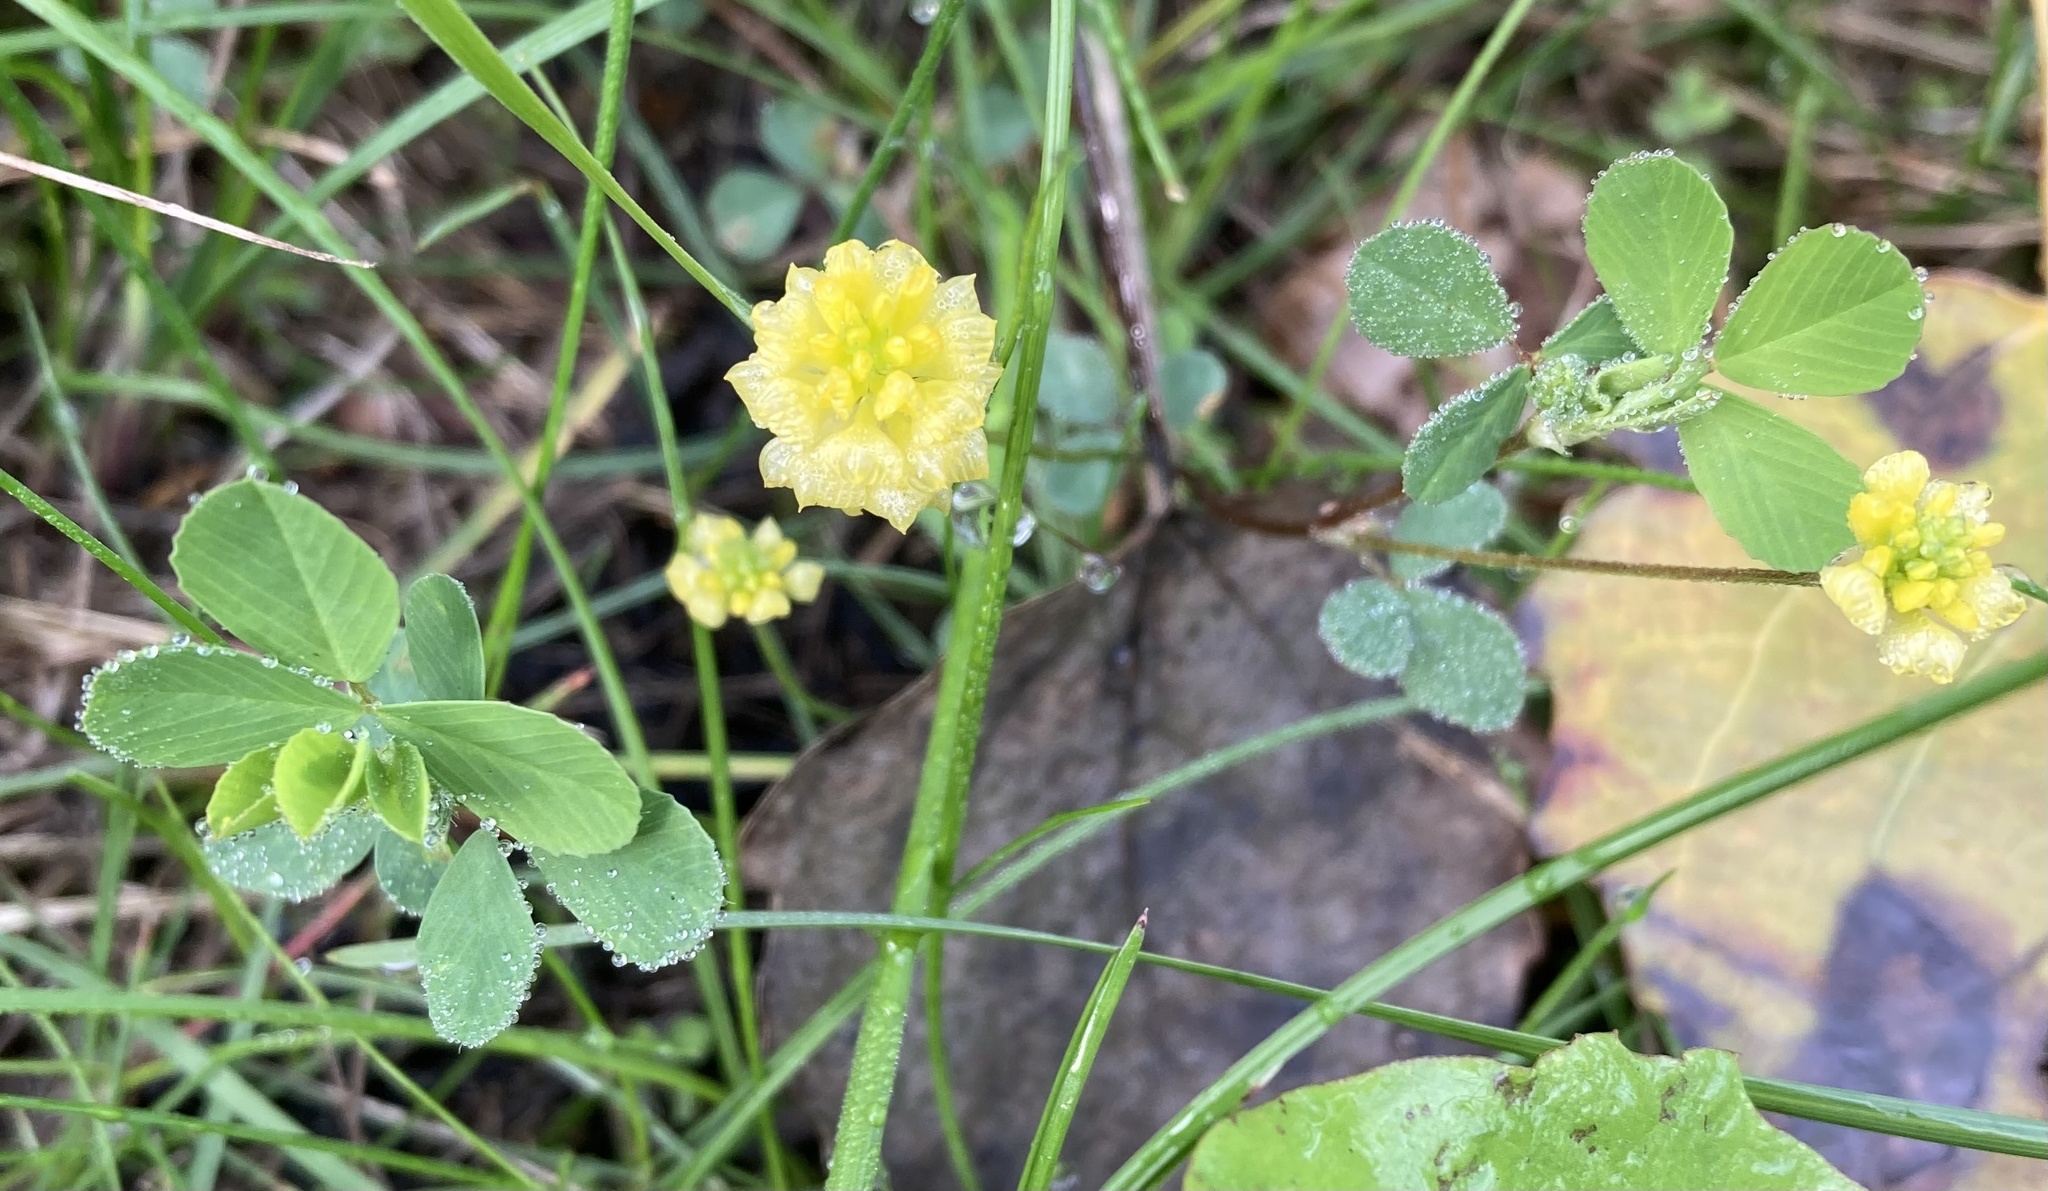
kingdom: Plantae
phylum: Tracheophyta
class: Magnoliopsida
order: Fabales
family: Fabaceae
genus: Trifolium
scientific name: Trifolium campestre
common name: Field clover
